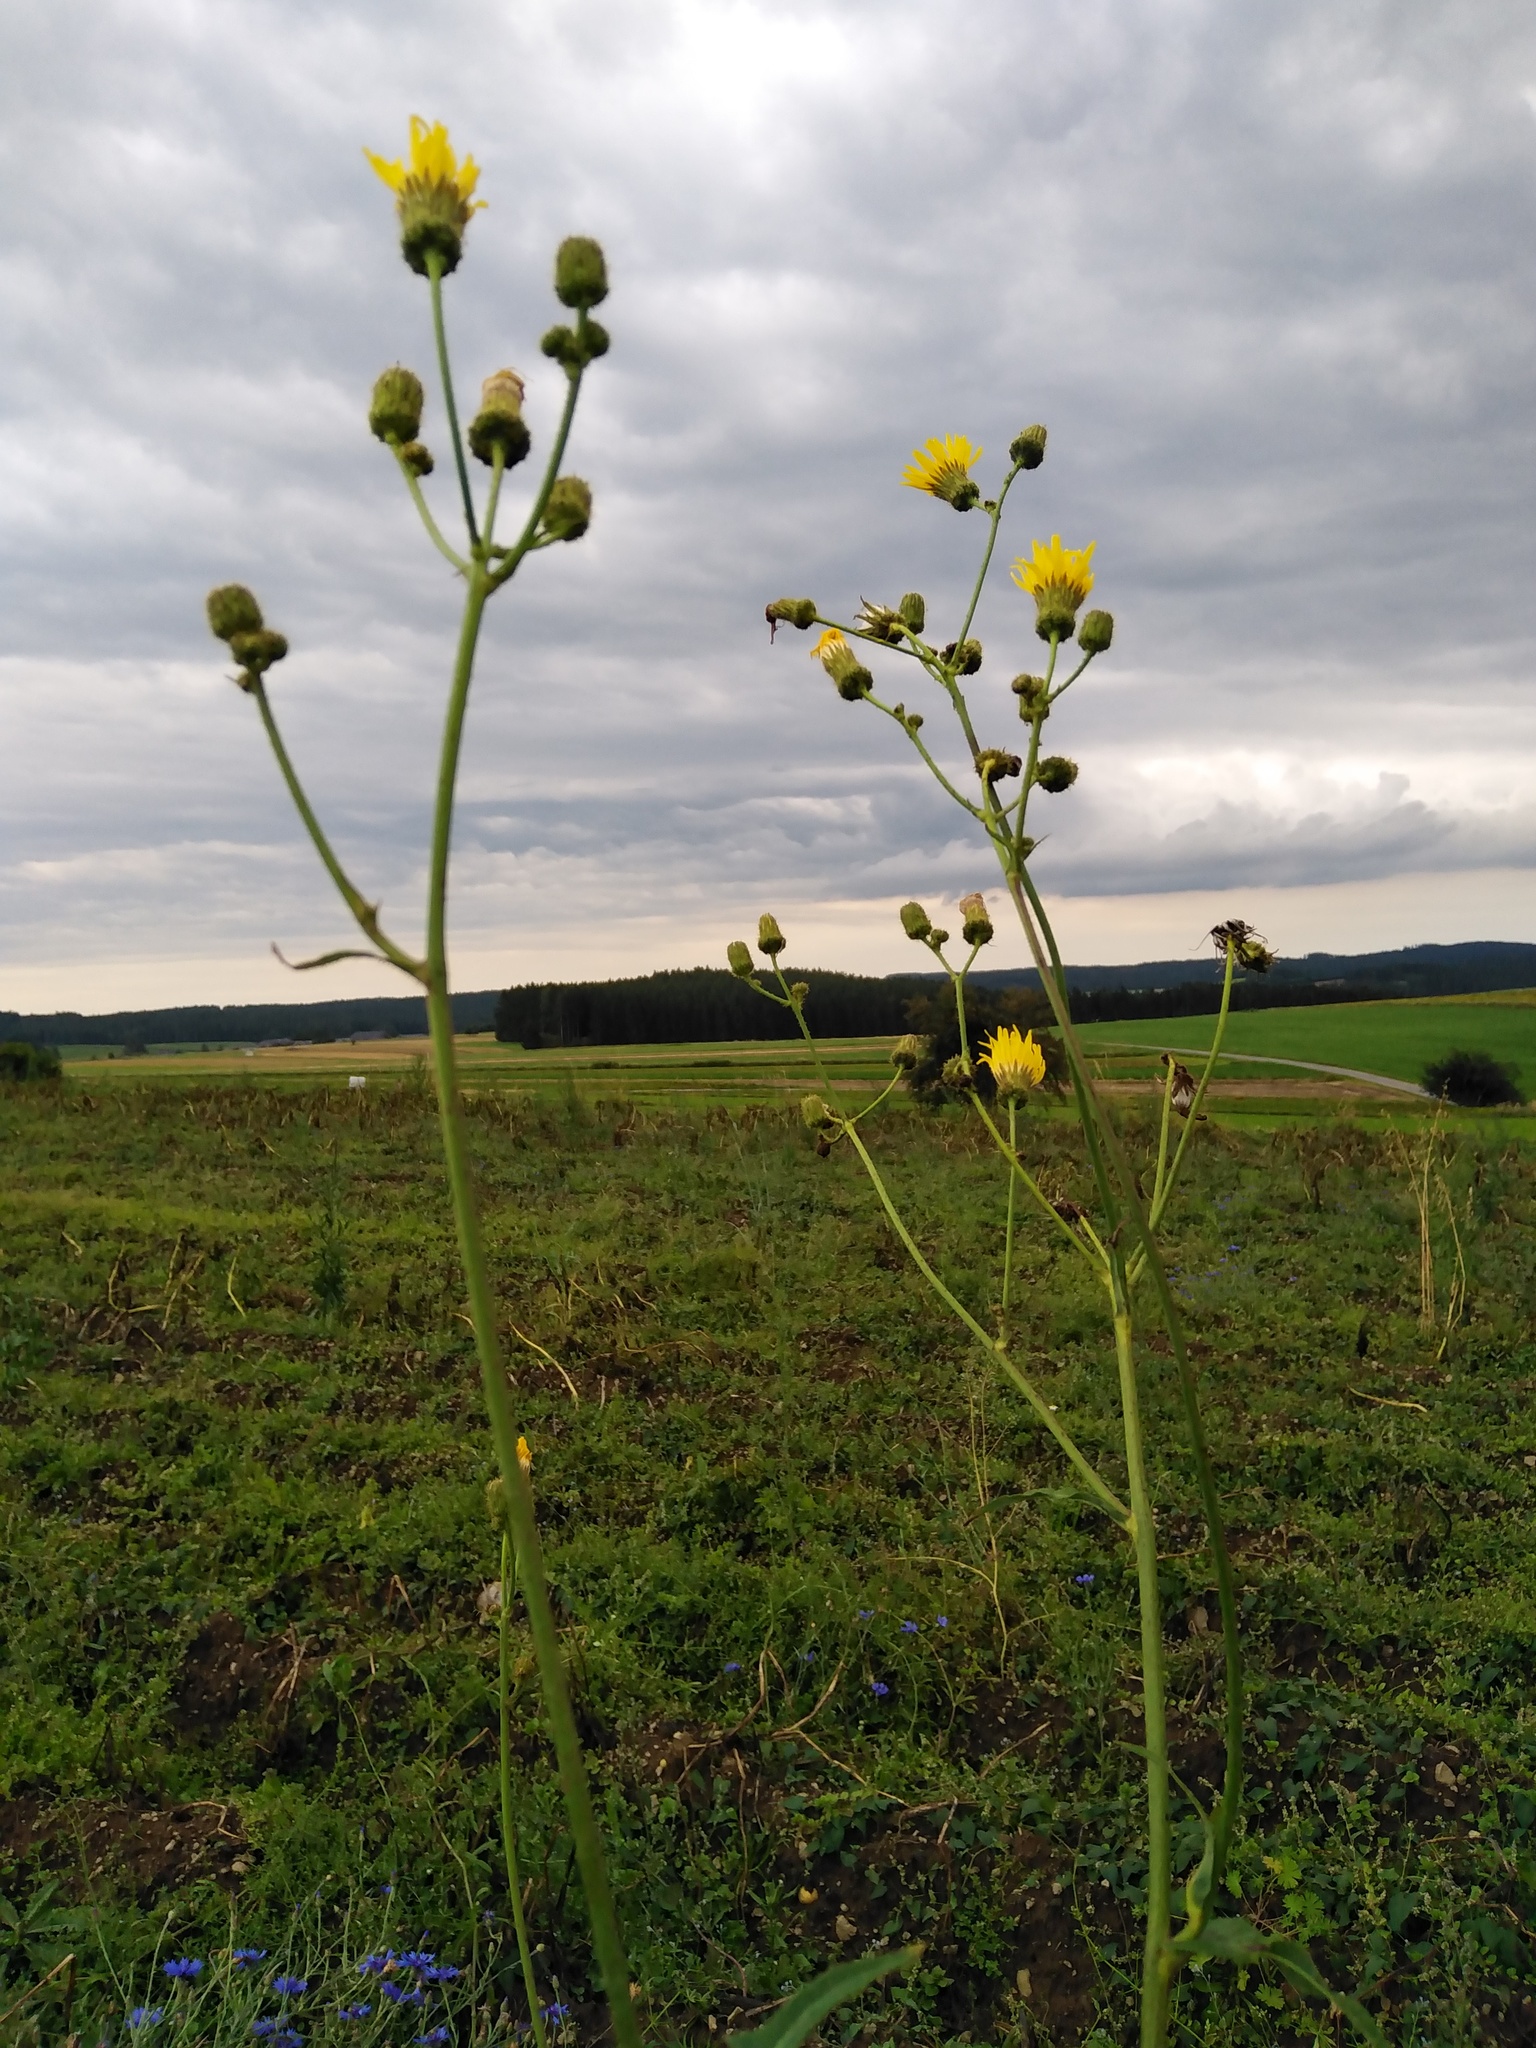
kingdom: Plantae
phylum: Tracheophyta
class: Magnoliopsida
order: Asterales
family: Asteraceae
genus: Sonchus
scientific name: Sonchus arvensis
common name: Perennial sow-thistle
